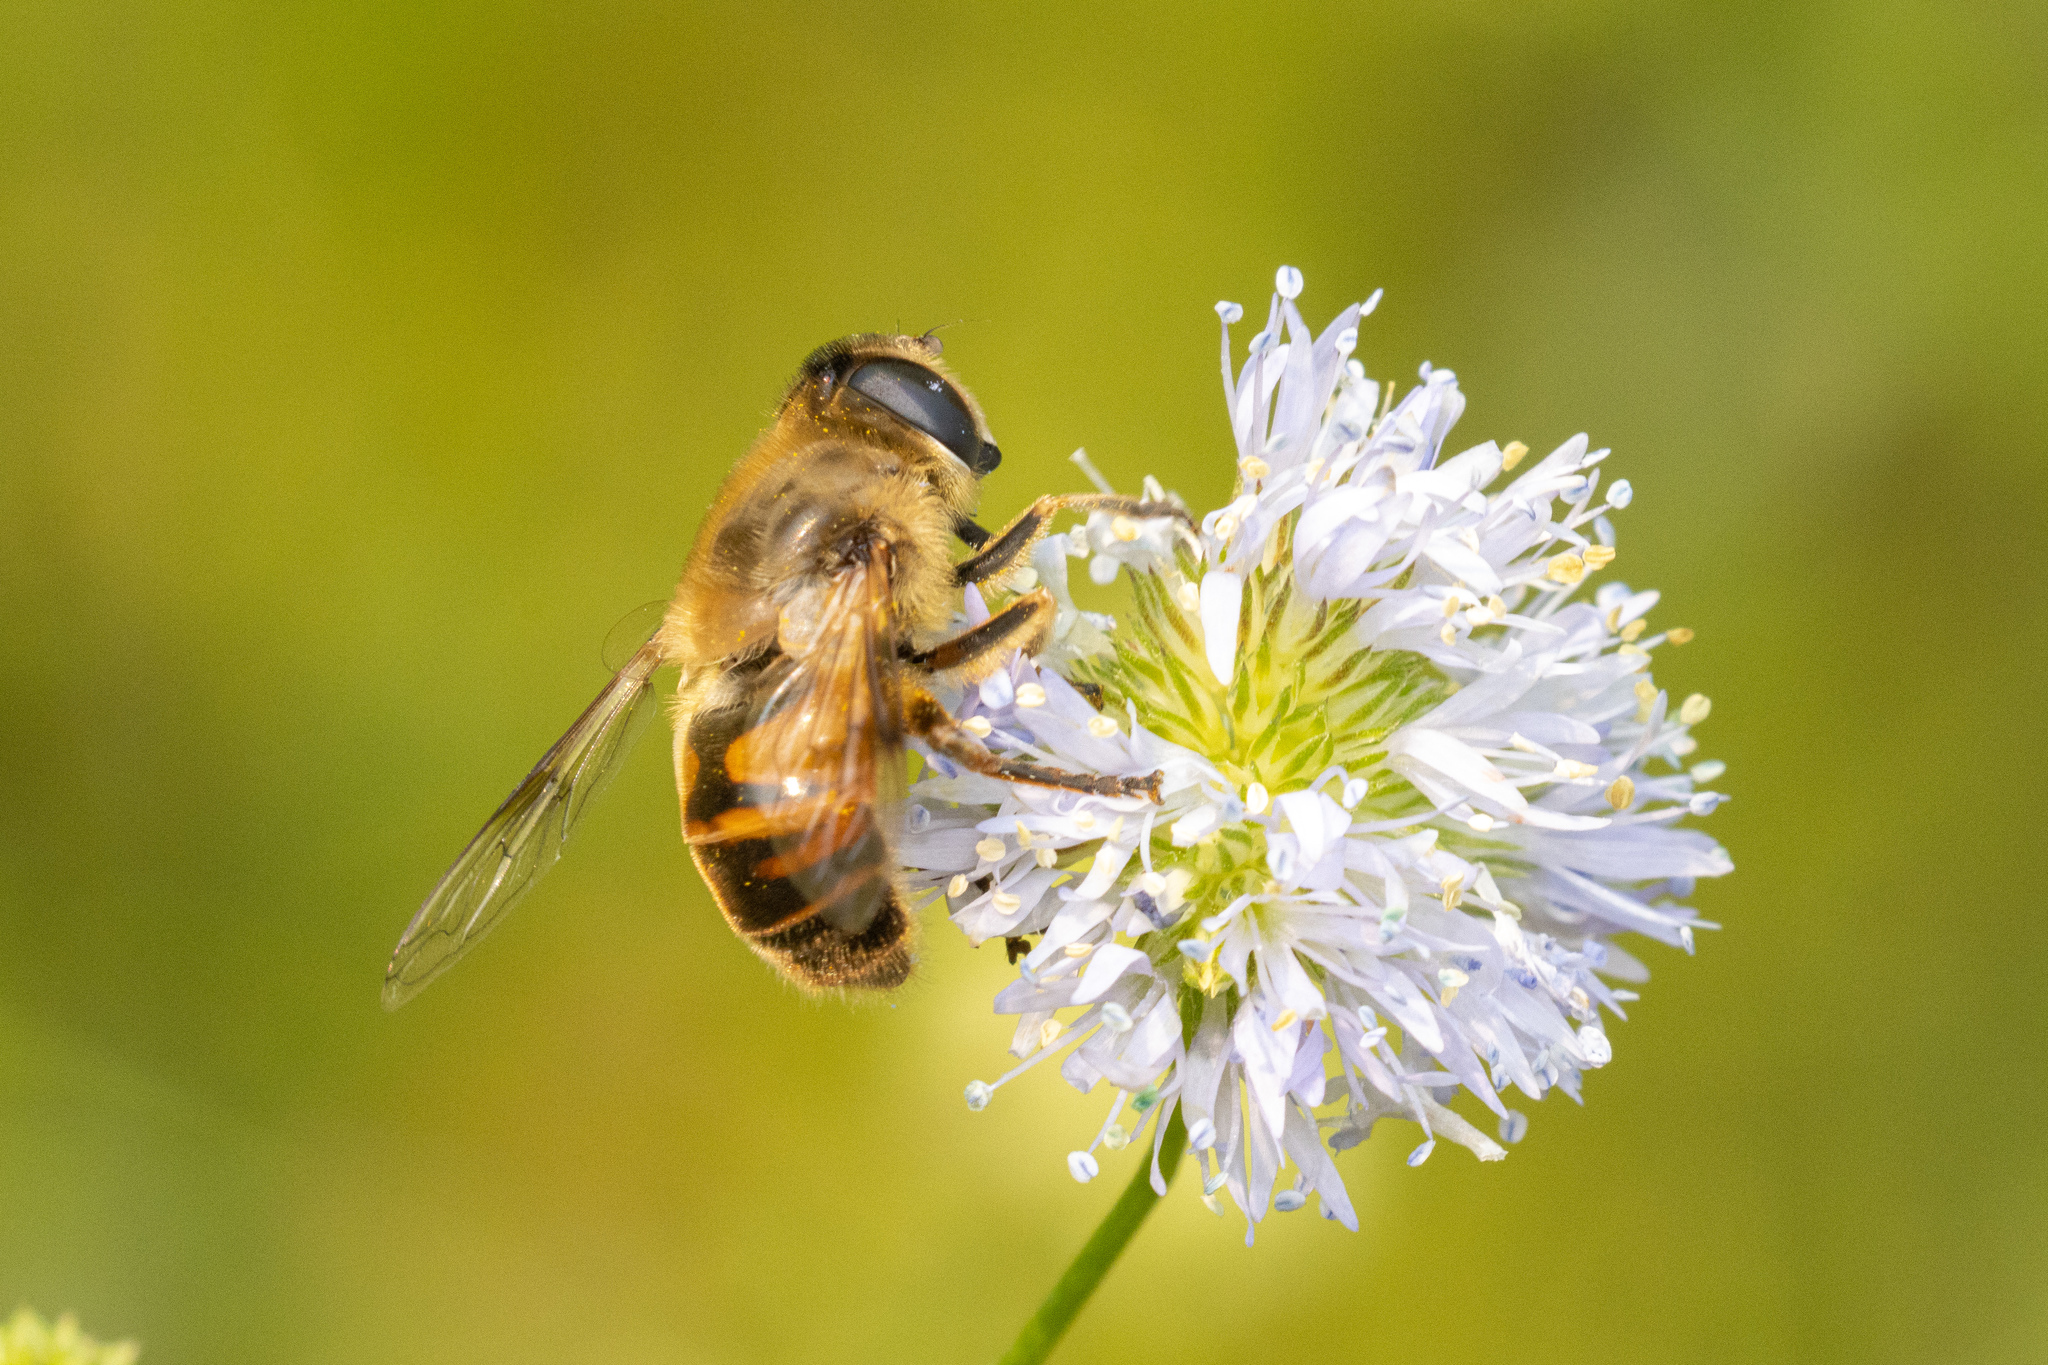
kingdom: Animalia
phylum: Arthropoda
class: Insecta
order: Diptera
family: Syrphidae
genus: Eristalis
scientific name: Eristalis tenax
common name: Drone fly
